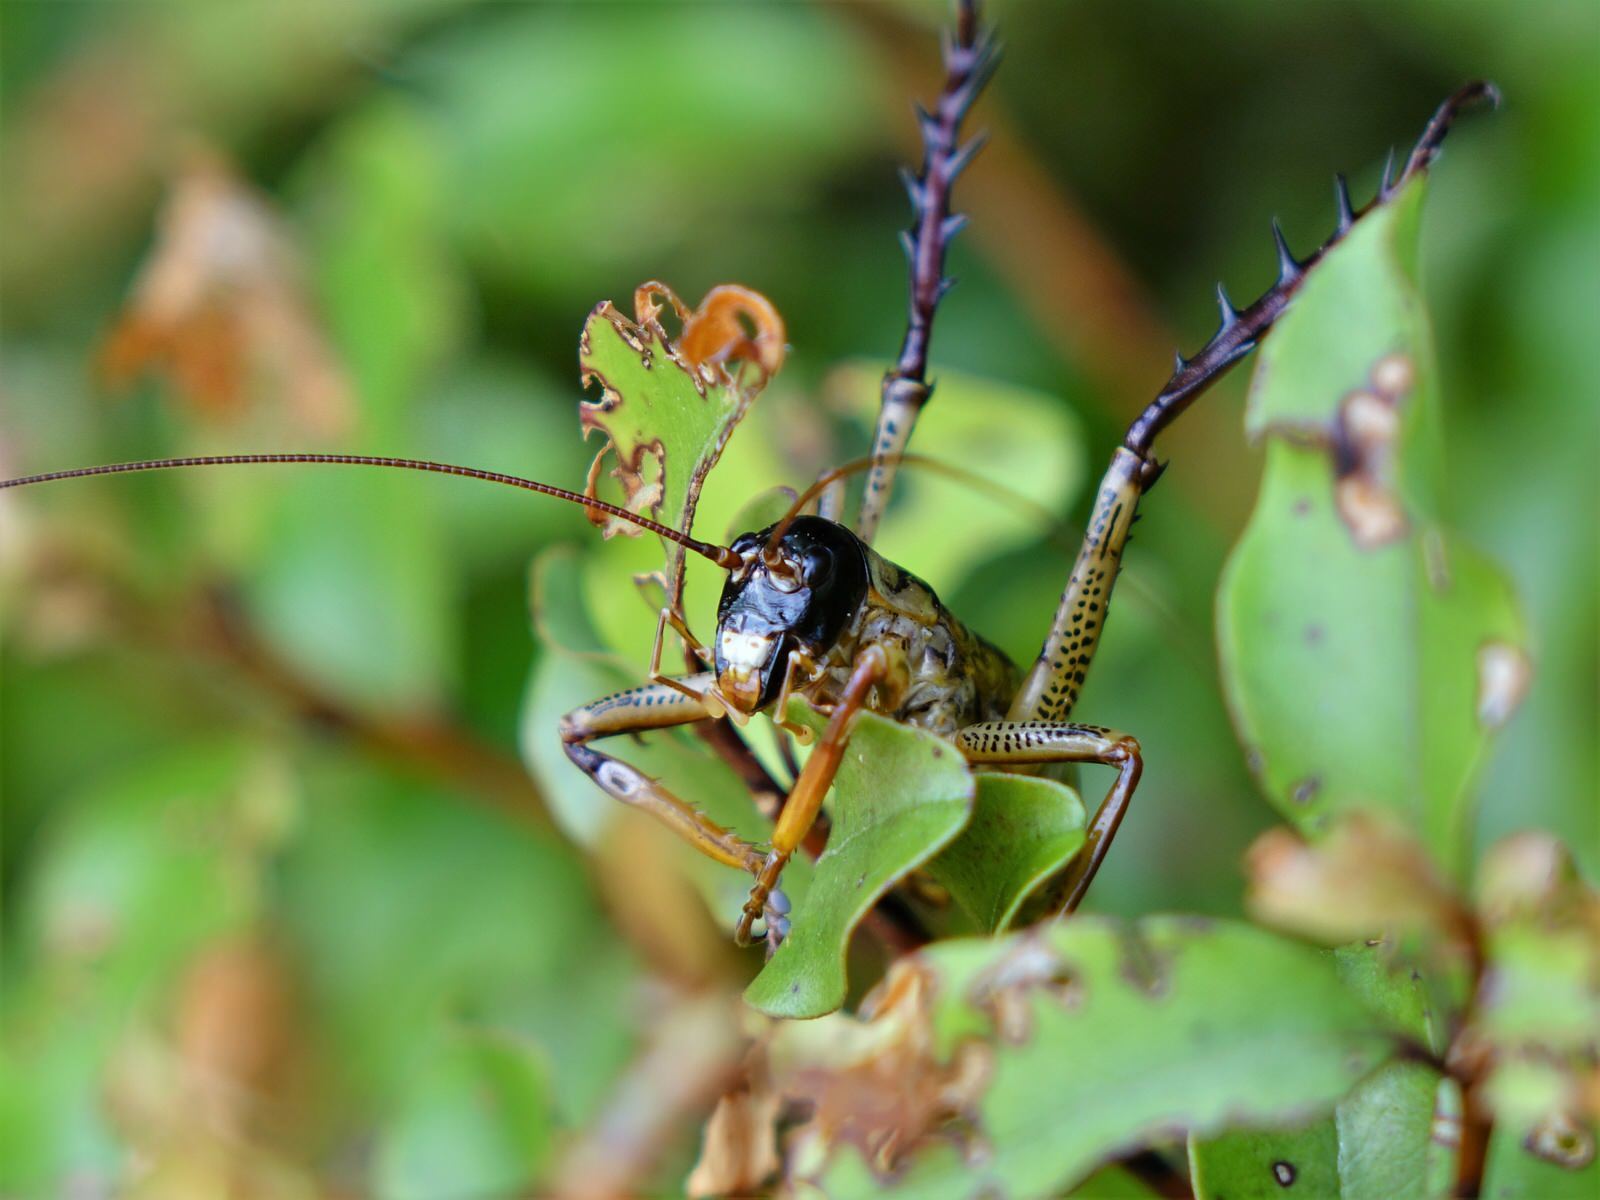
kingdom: Animalia
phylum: Arthropoda
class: Insecta
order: Orthoptera
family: Anostostomatidae
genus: Hemideina
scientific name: Hemideina thoracica
